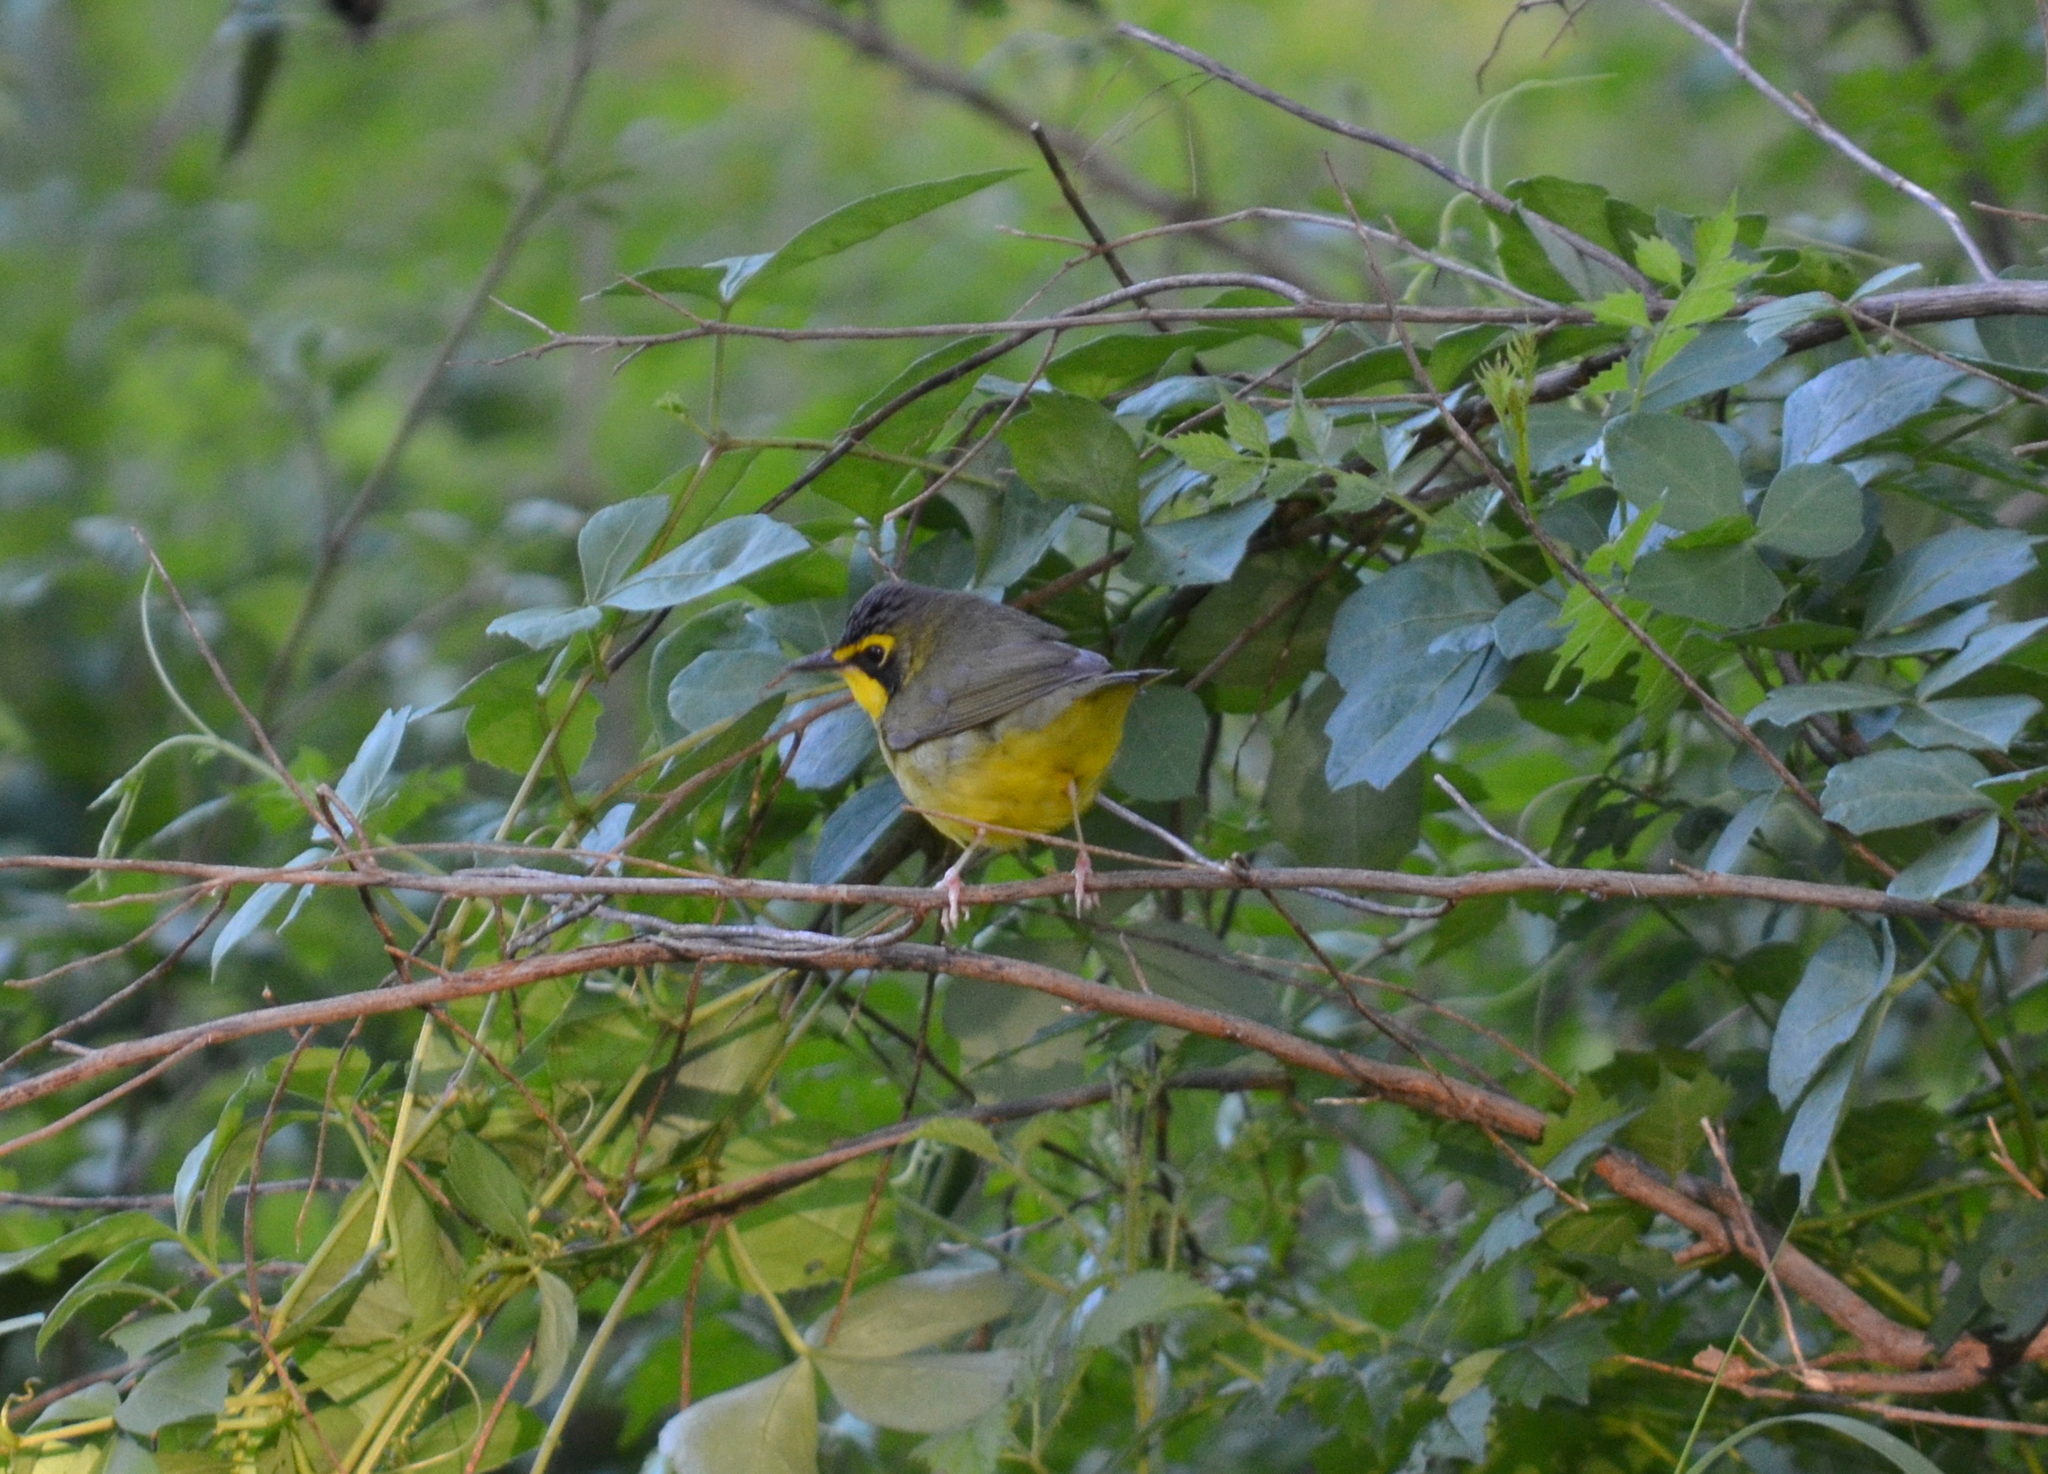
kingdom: Animalia
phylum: Chordata
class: Aves
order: Passeriformes
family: Parulidae
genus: Geothlypis
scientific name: Geothlypis formosa
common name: Kentucky warbler
